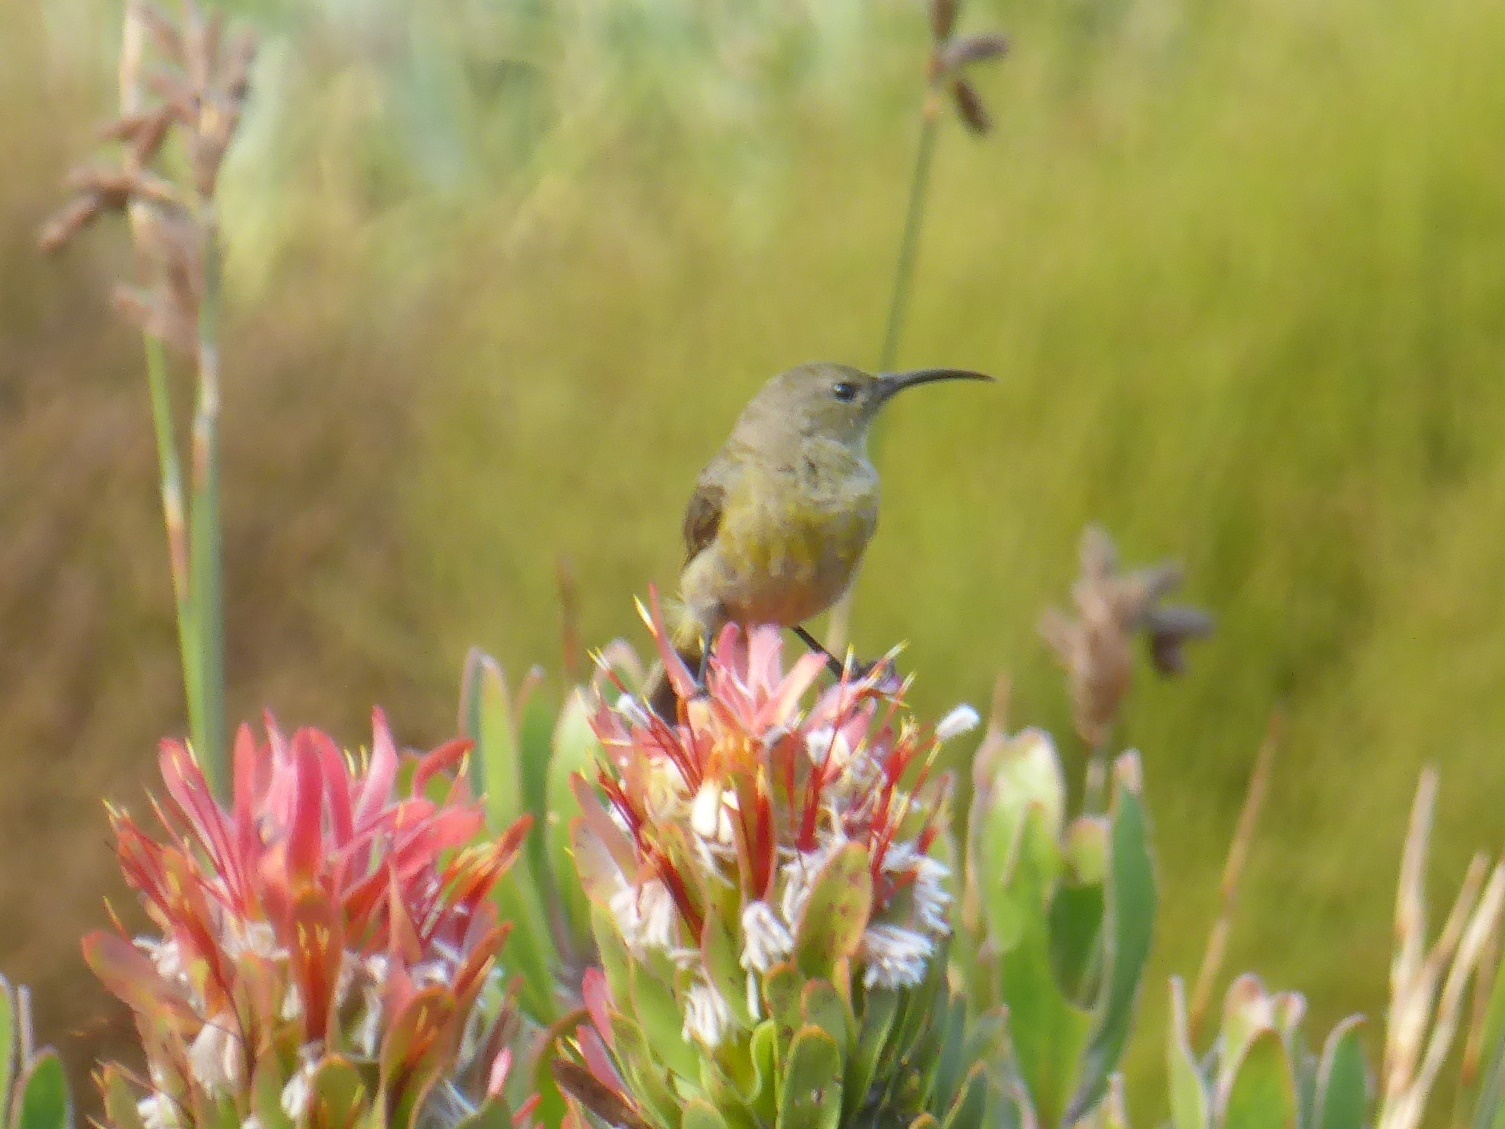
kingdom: Animalia
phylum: Chordata
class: Aves
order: Passeriformes
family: Nectariniidae
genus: Anthobaphes
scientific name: Anthobaphes violacea
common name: Orange-breasted sunbird
